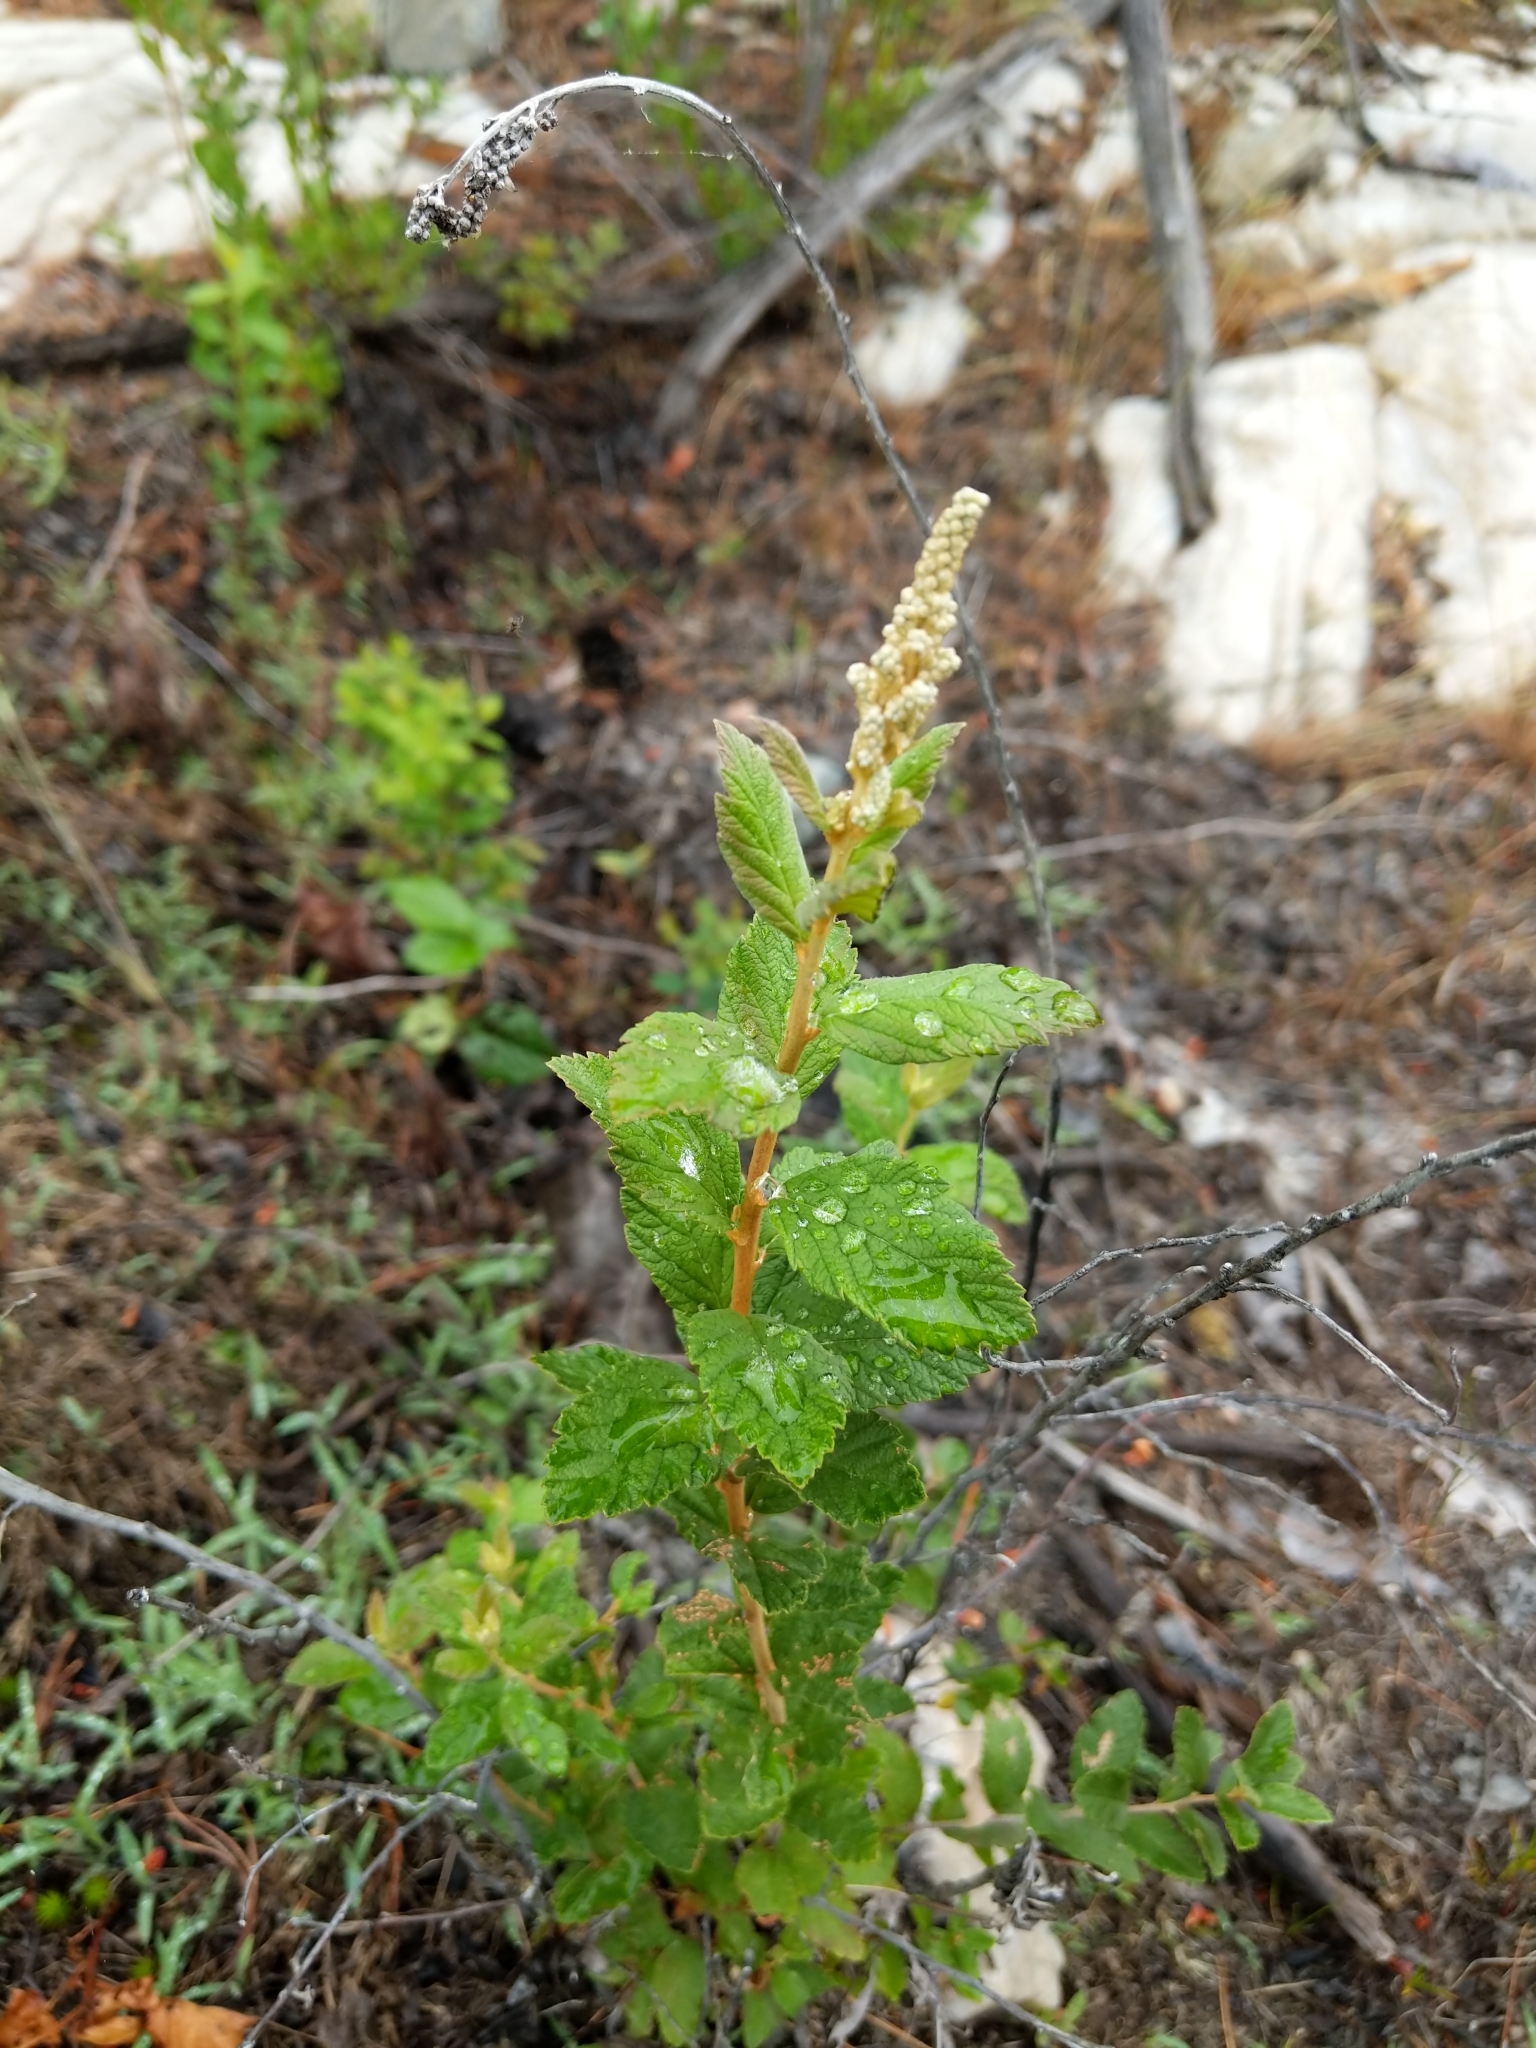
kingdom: Plantae
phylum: Tracheophyta
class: Magnoliopsida
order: Rosales
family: Rosaceae
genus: Spiraea
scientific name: Spiraea tomentosa
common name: Hardhack
